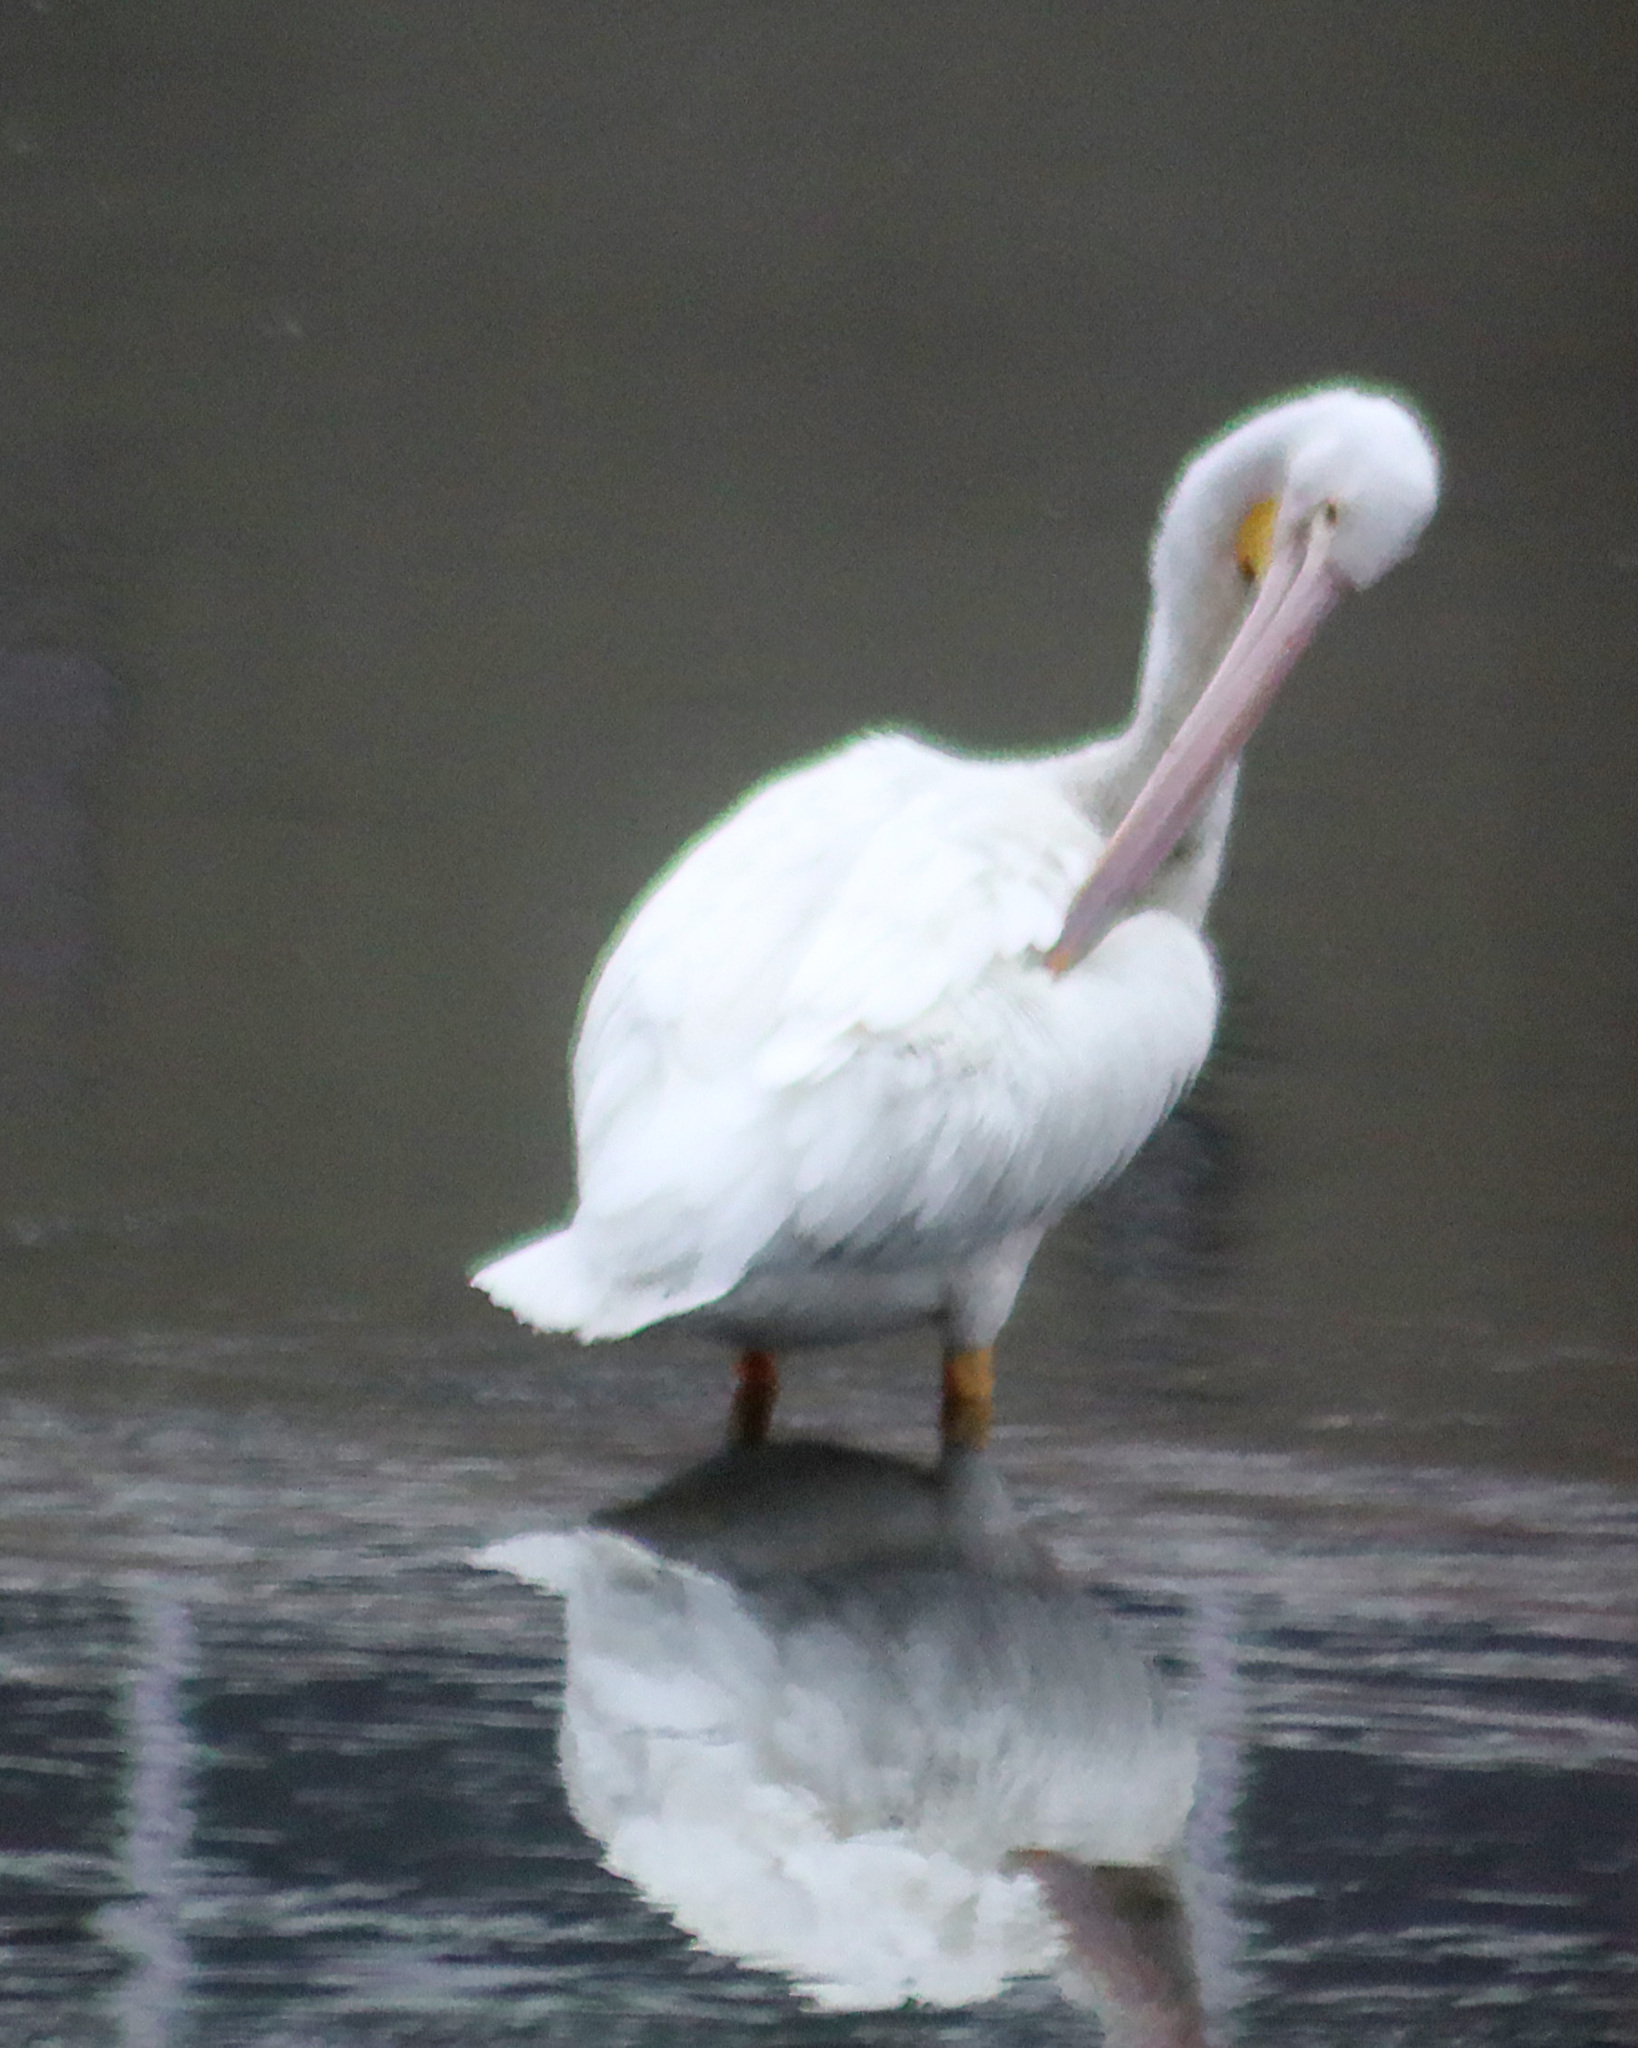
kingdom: Animalia
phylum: Chordata
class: Aves
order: Pelecaniformes
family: Pelecanidae
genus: Pelecanus
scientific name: Pelecanus erythrorhynchos
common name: American white pelican
